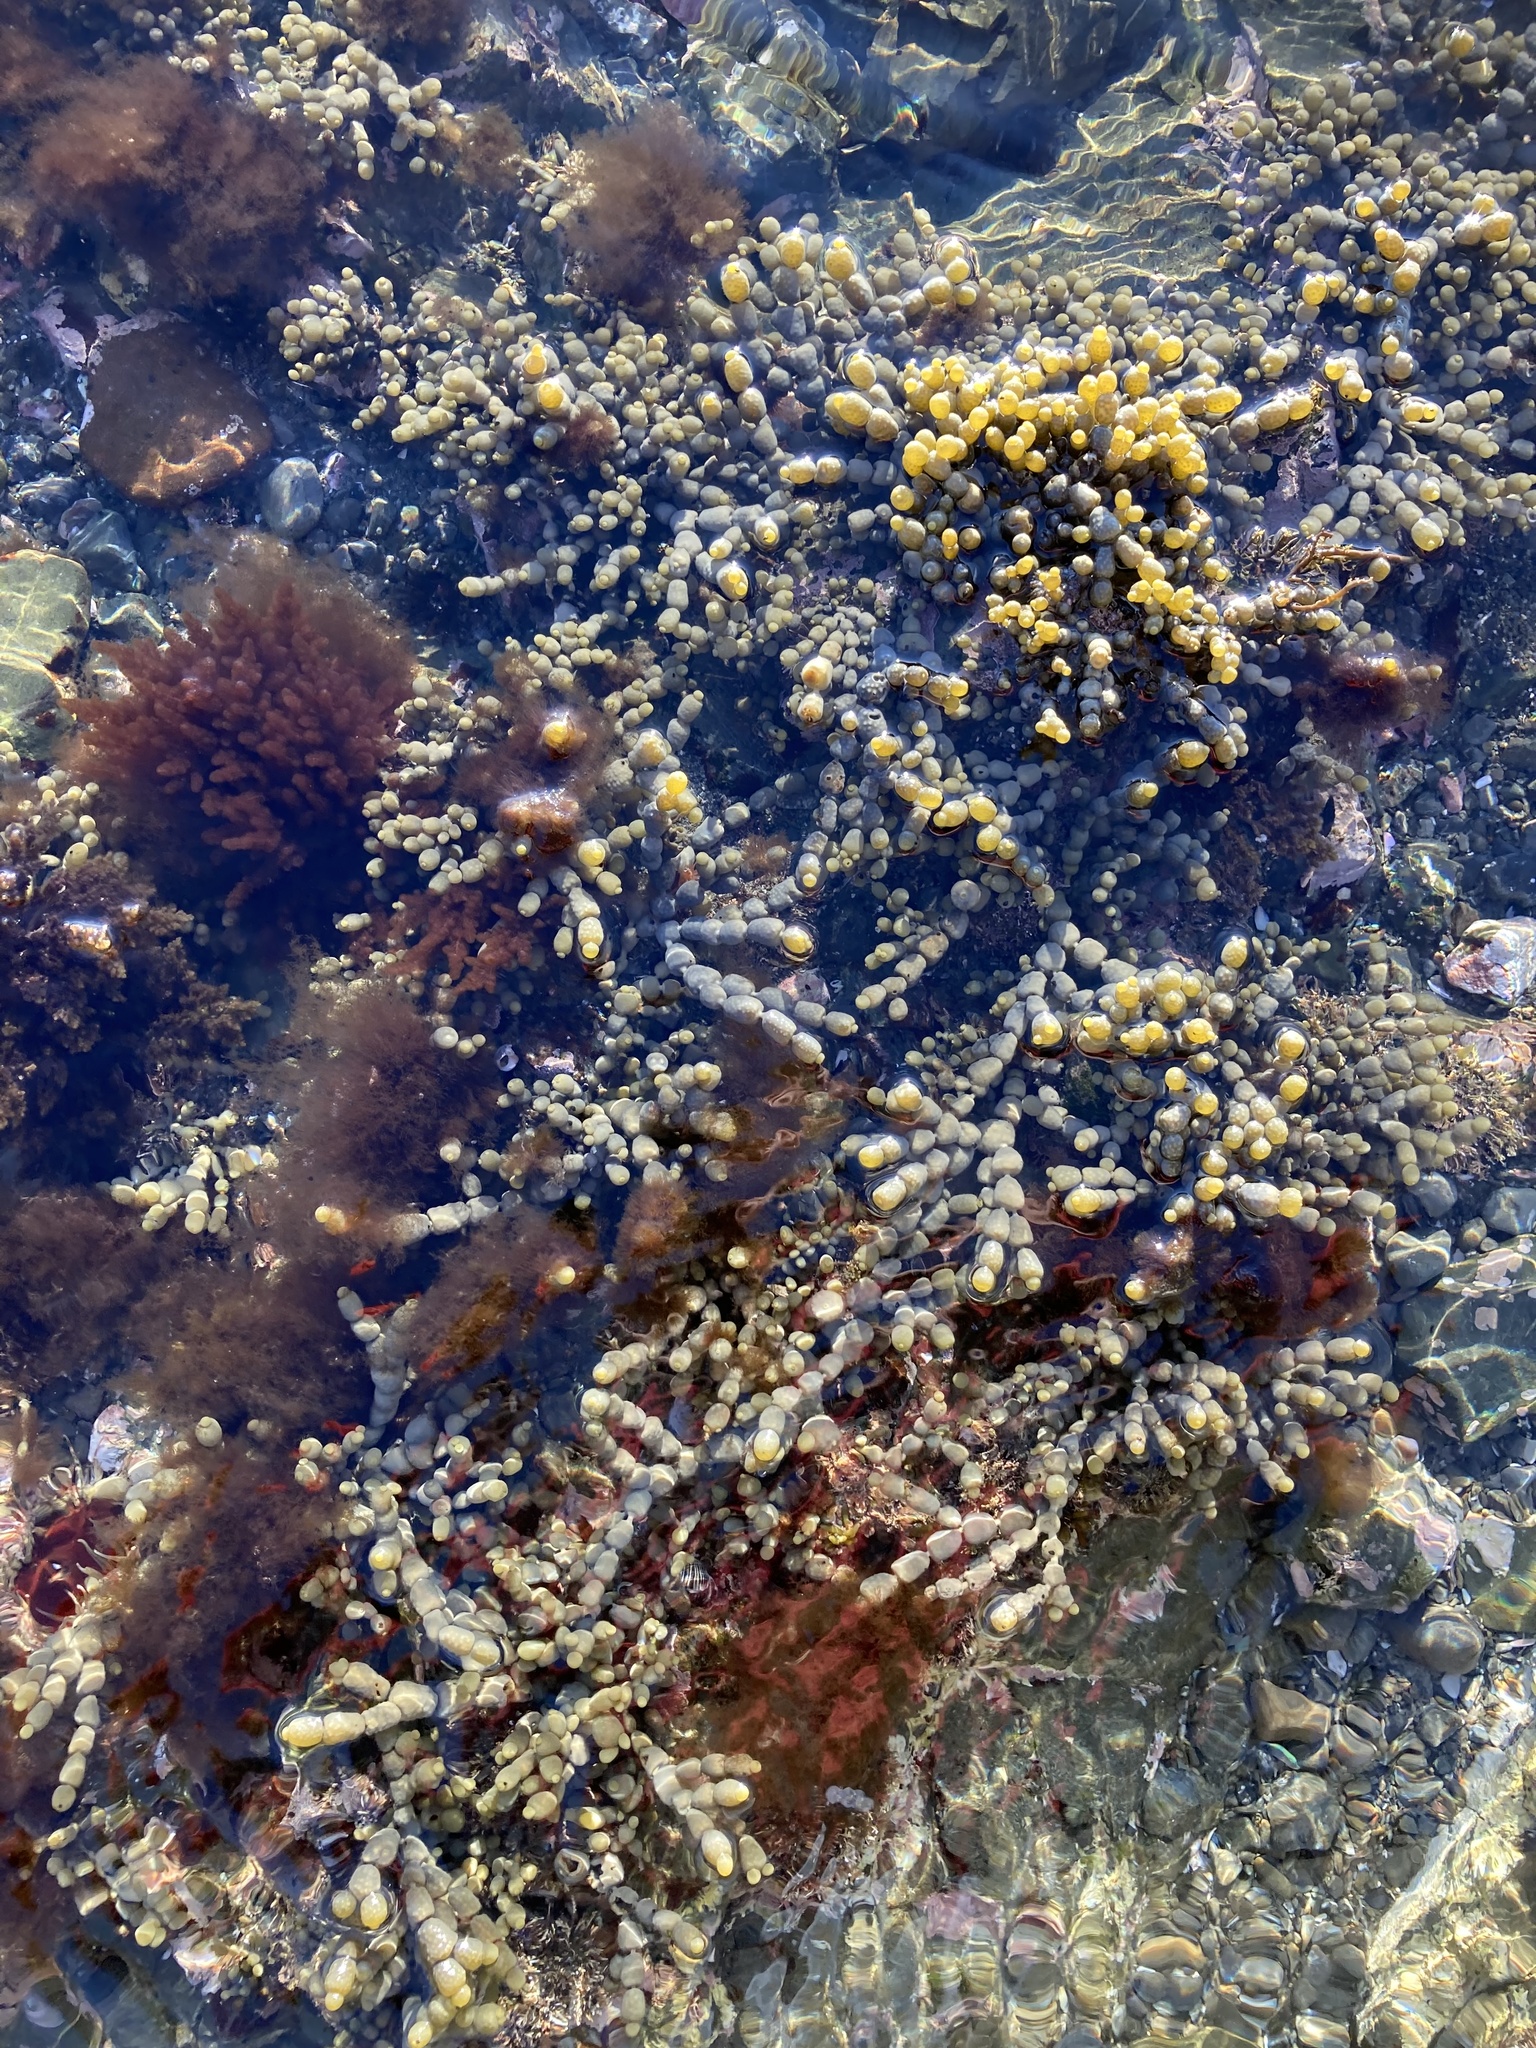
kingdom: Chromista
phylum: Ochrophyta
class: Phaeophyceae
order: Fucales
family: Hormosiraceae
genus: Hormosira
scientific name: Hormosira banksii
